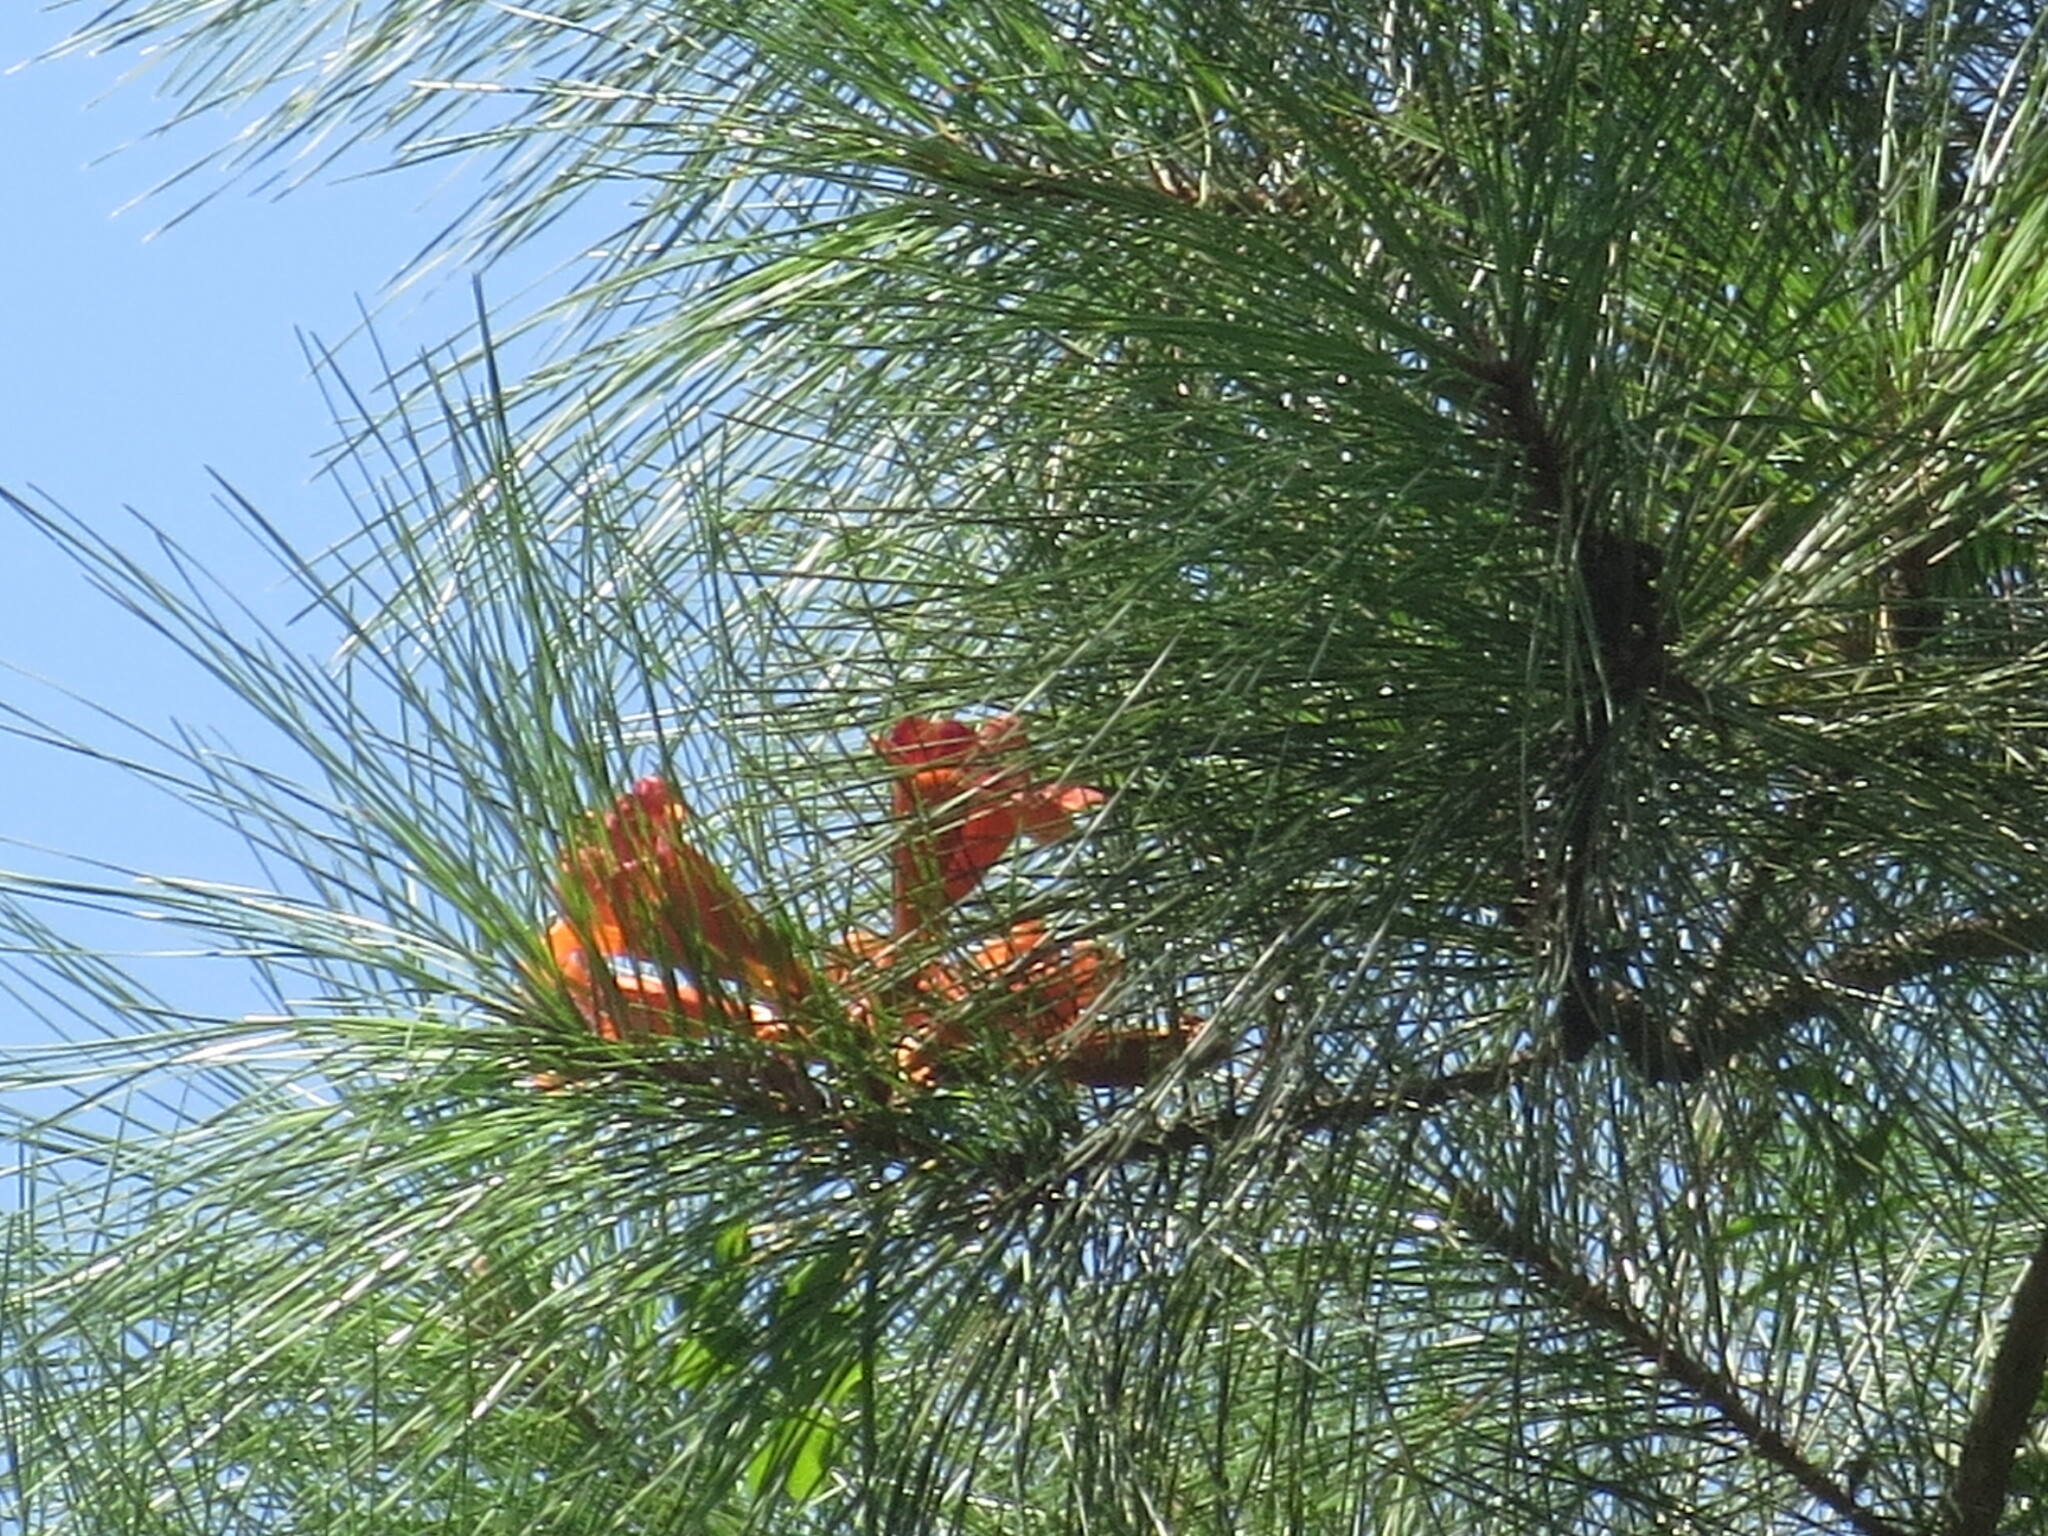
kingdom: Plantae
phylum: Tracheophyta
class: Magnoliopsida
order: Lamiales
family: Bignoniaceae
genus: Campsis
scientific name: Campsis radicans
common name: Trumpet-creeper
